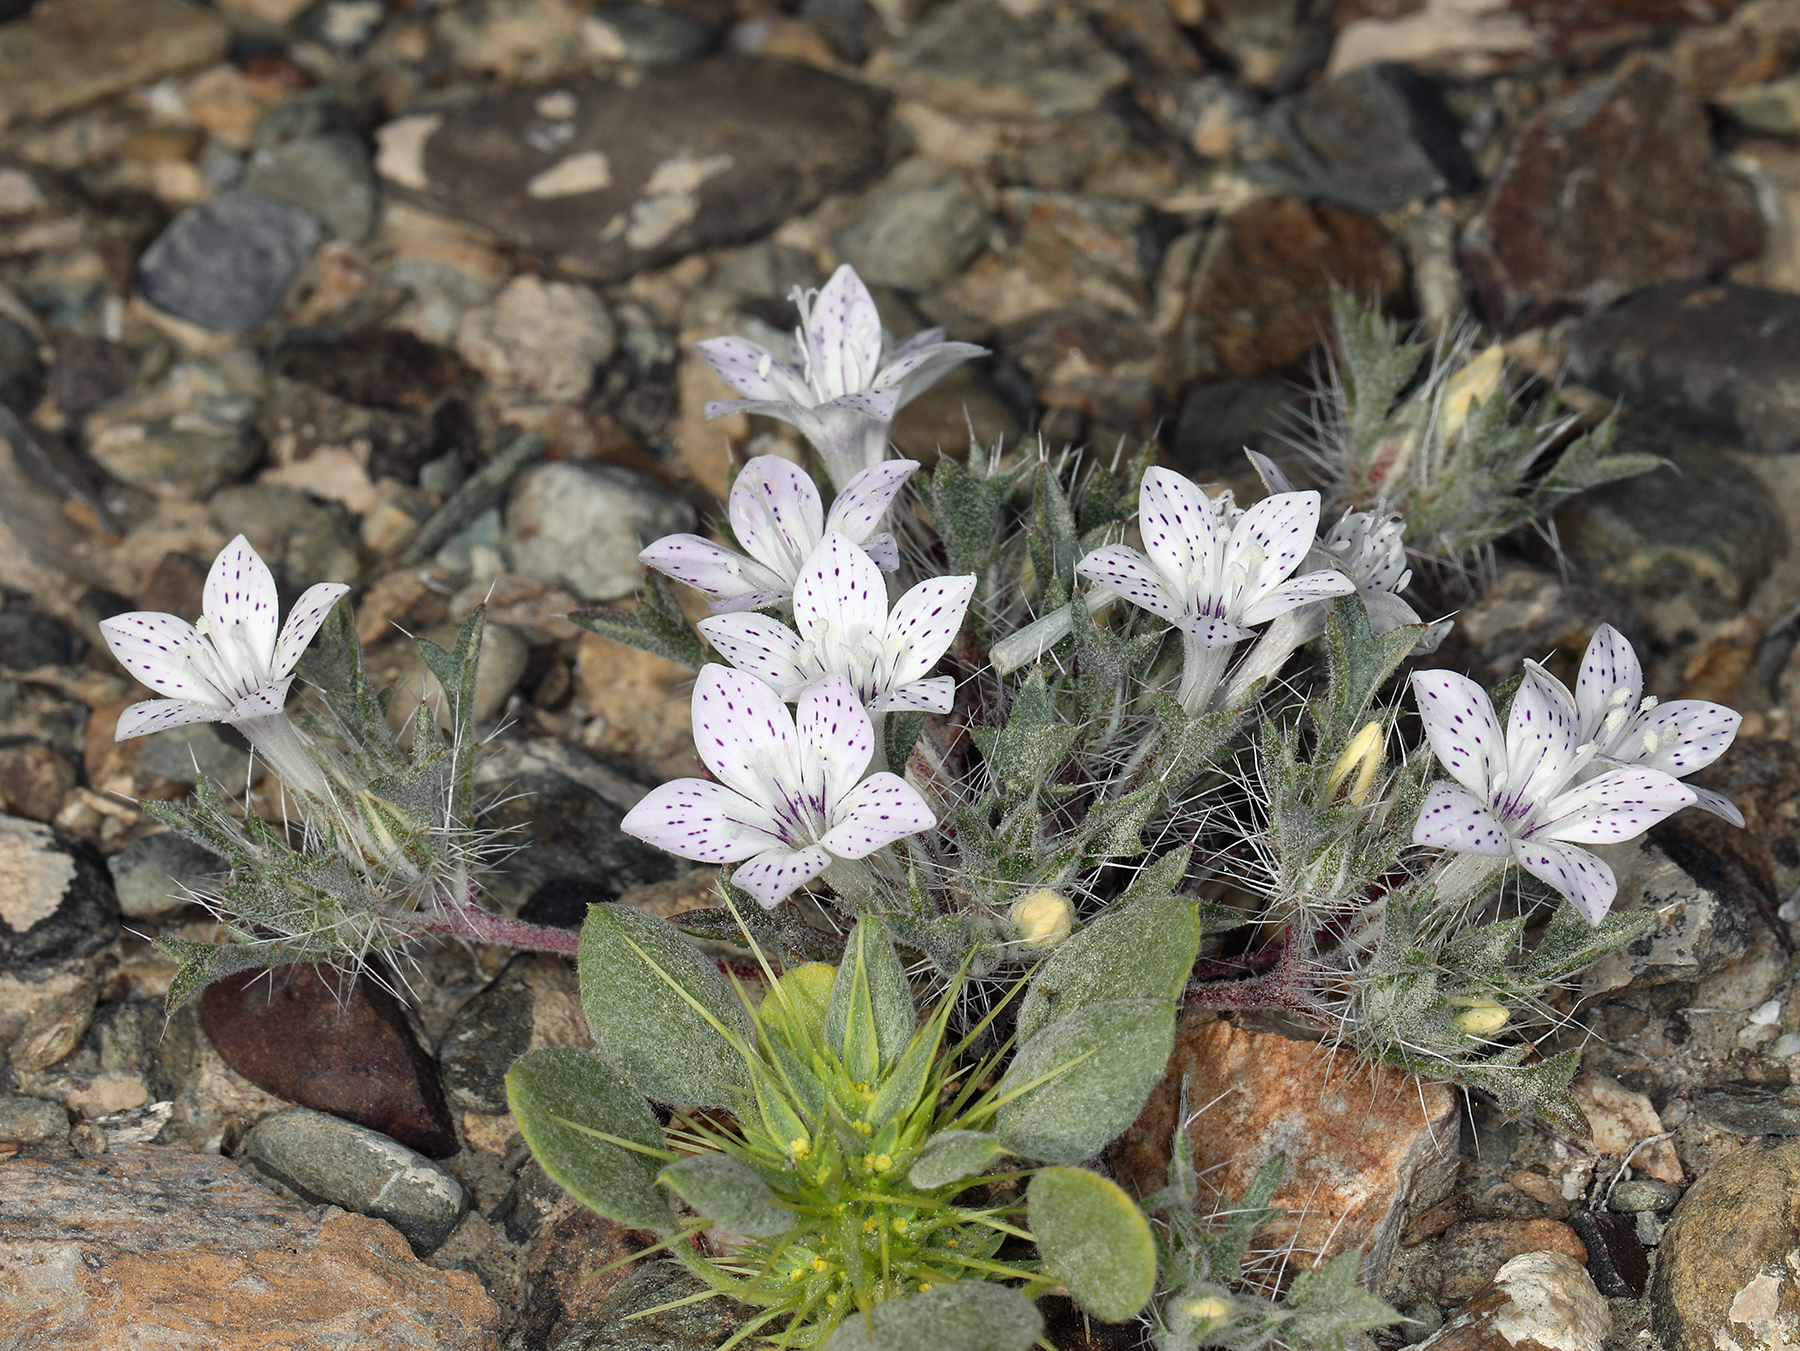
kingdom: Plantae
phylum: Tracheophyta
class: Magnoliopsida
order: Ericales
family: Polemoniaceae
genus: Langloisia
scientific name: Langloisia setosissima
